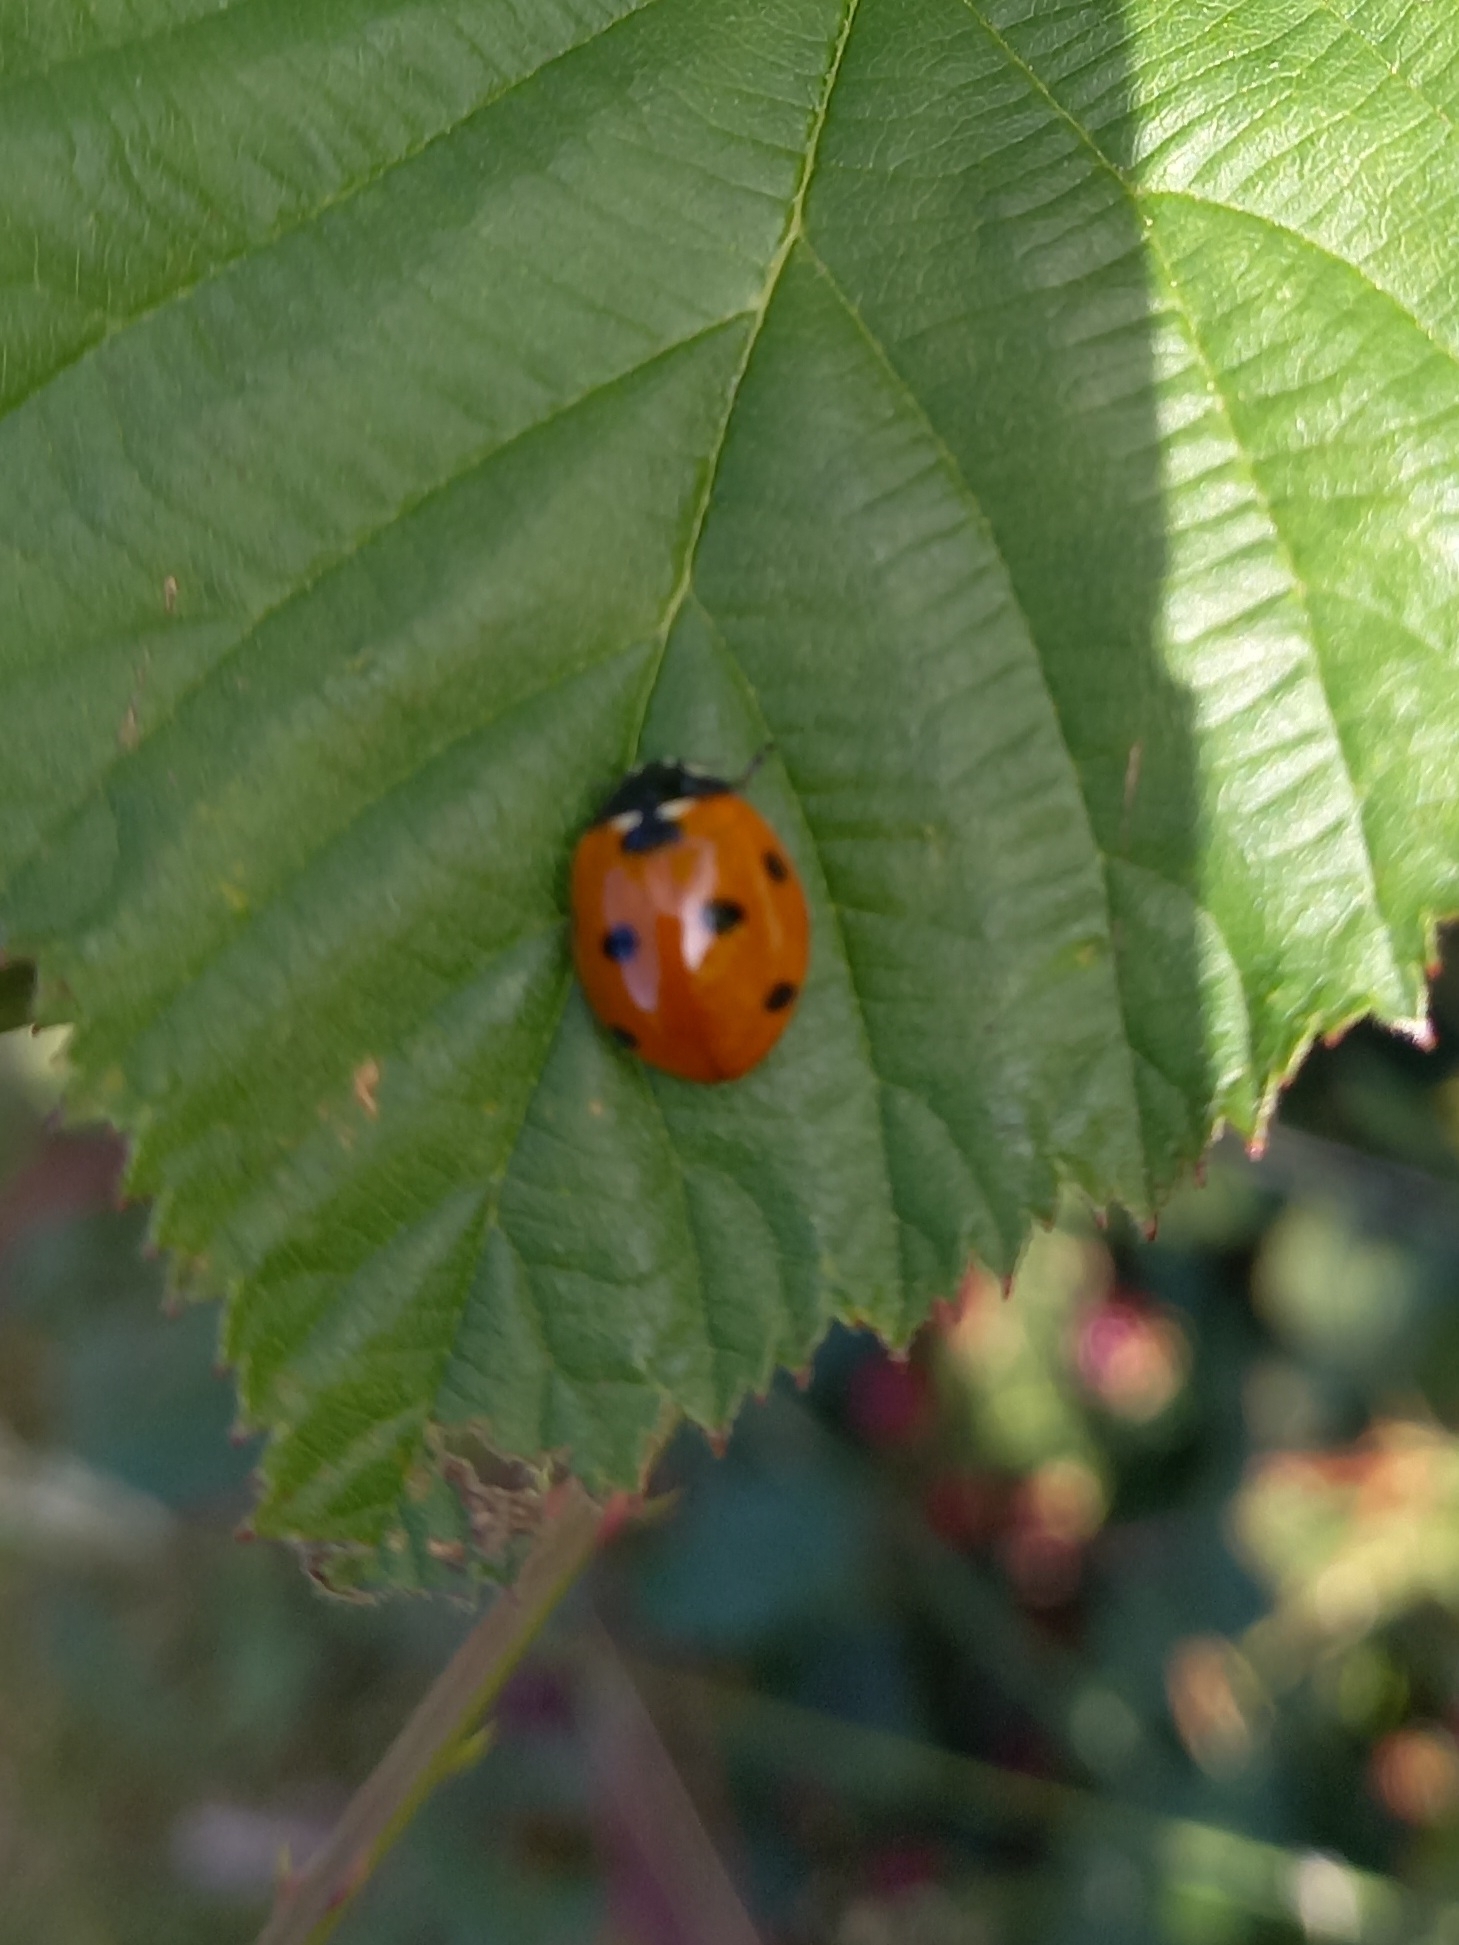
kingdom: Animalia
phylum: Arthropoda
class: Insecta
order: Coleoptera
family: Coccinellidae
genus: Coccinella
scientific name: Coccinella septempunctata
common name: Sevenspotted lady beetle
